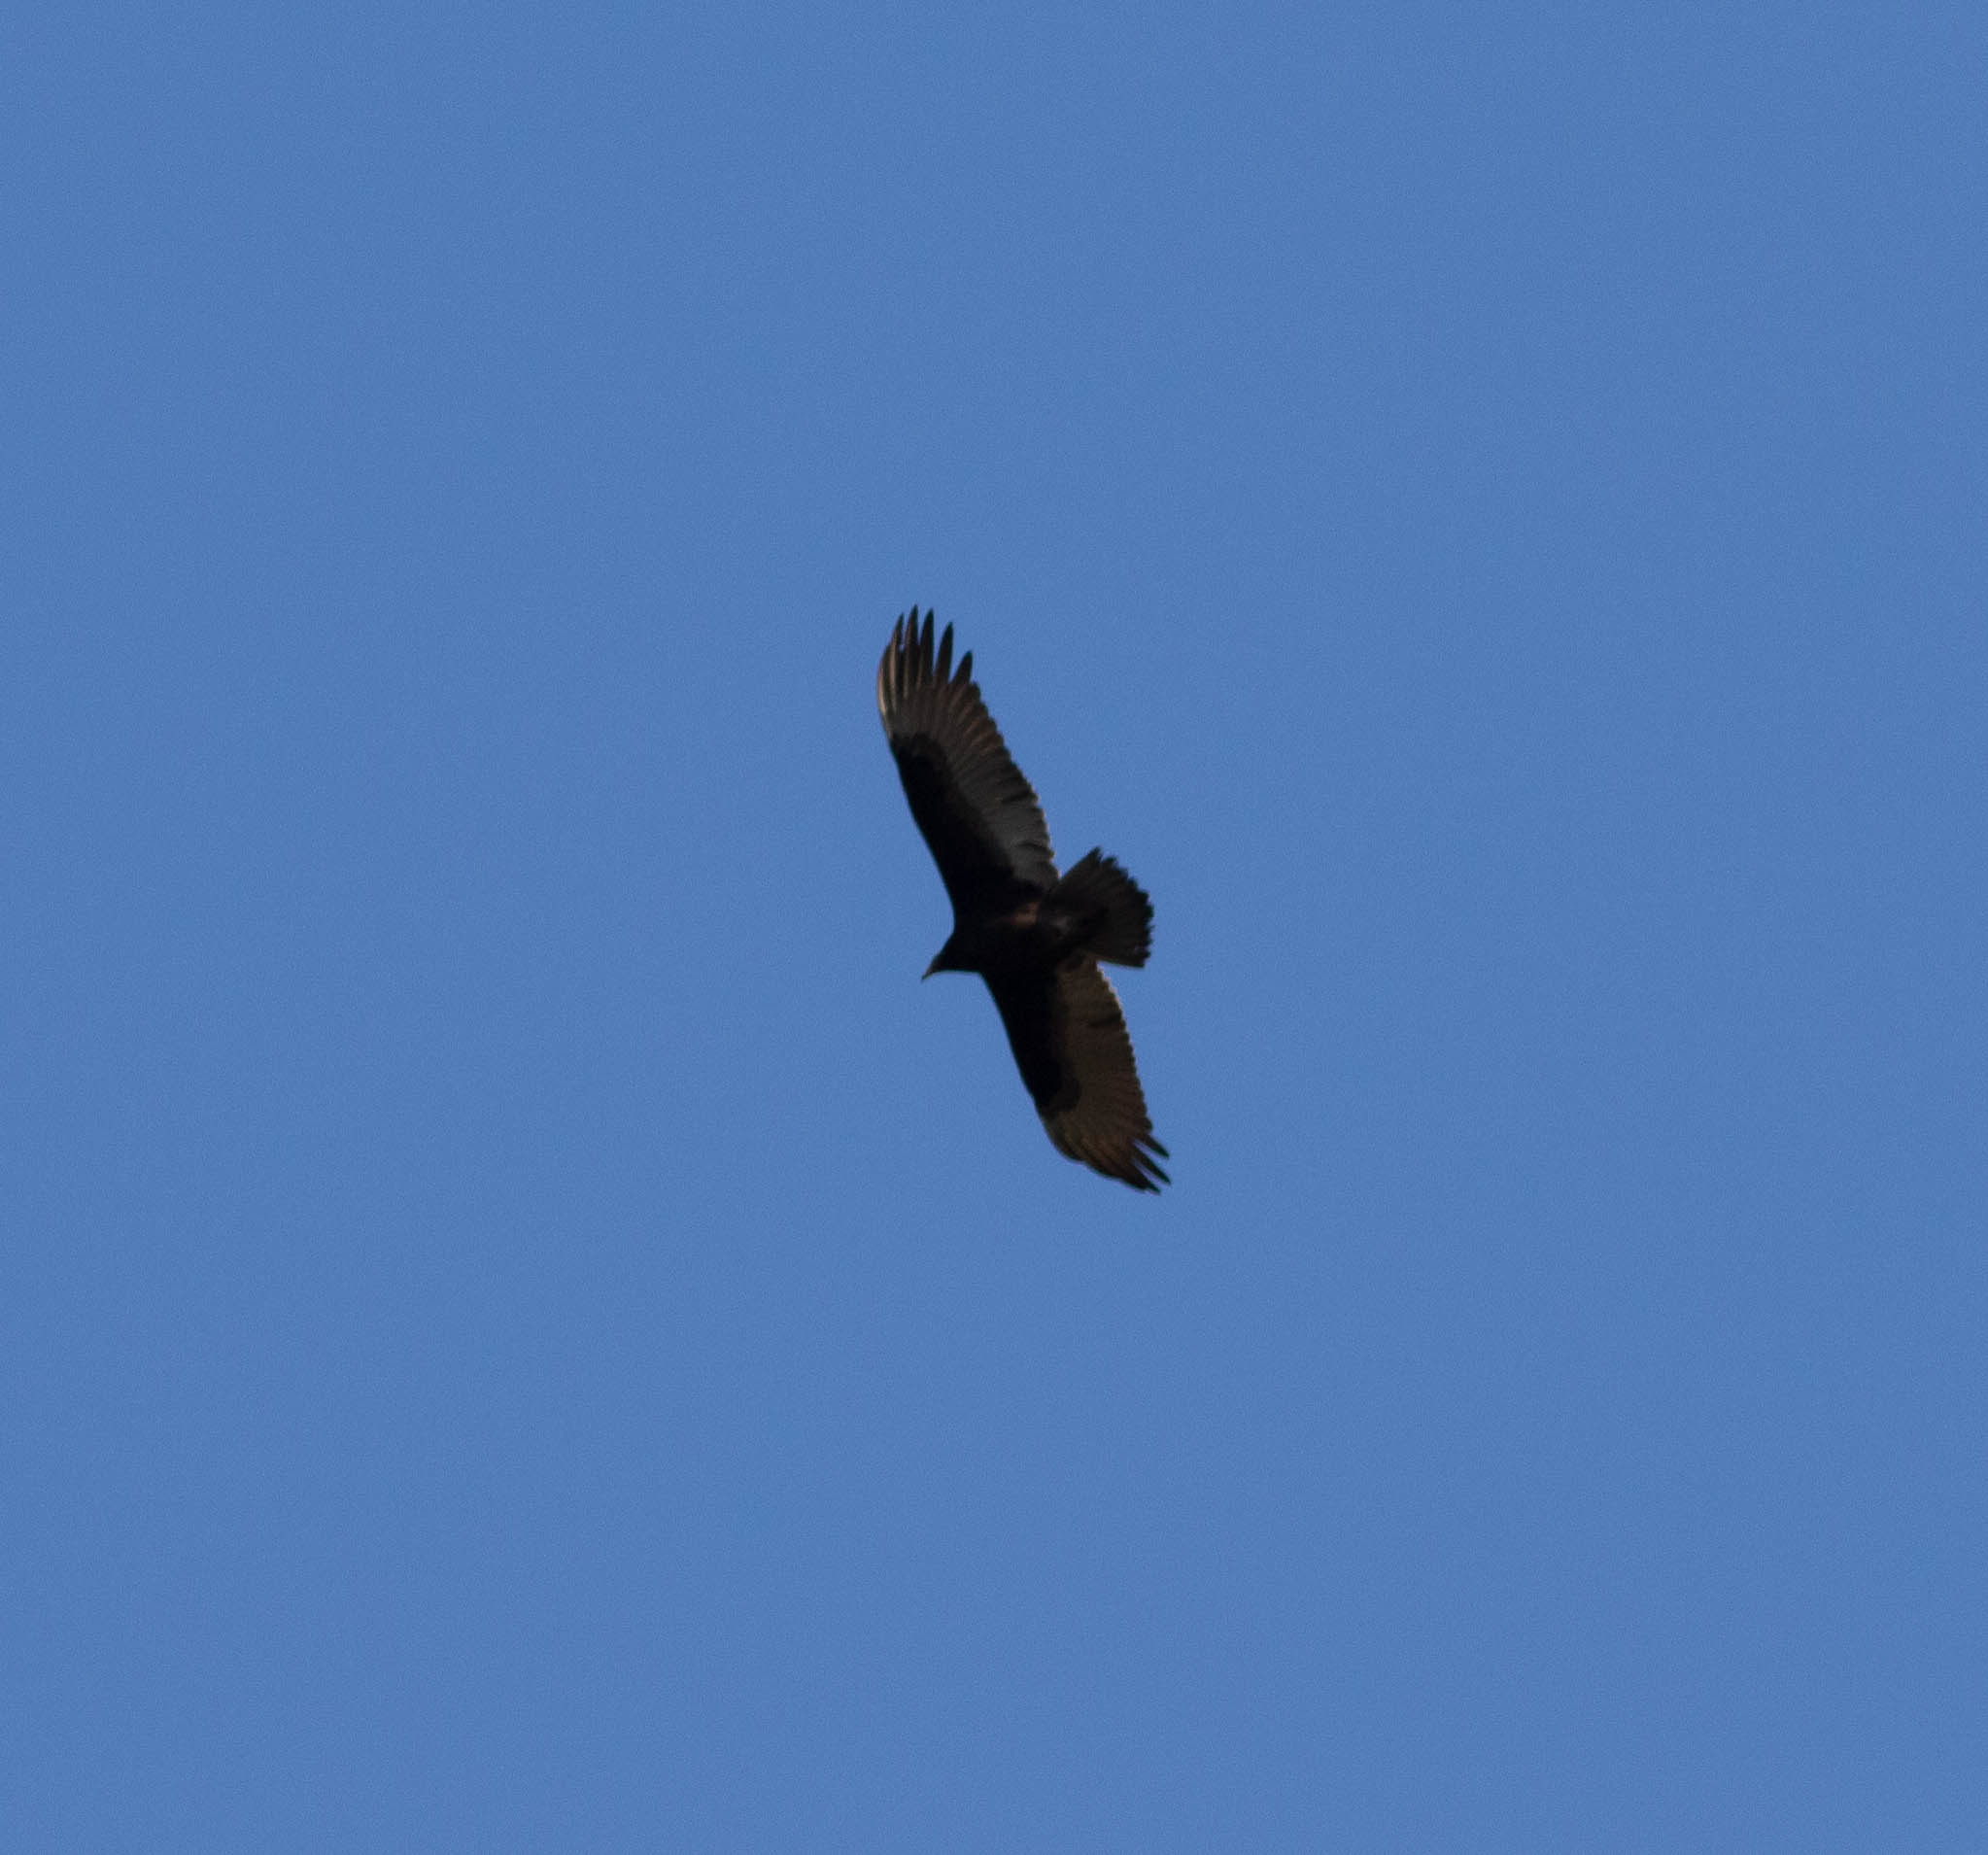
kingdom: Animalia
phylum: Chordata
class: Aves
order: Accipitriformes
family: Cathartidae
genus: Cathartes
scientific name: Cathartes aura
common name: Turkey vulture
